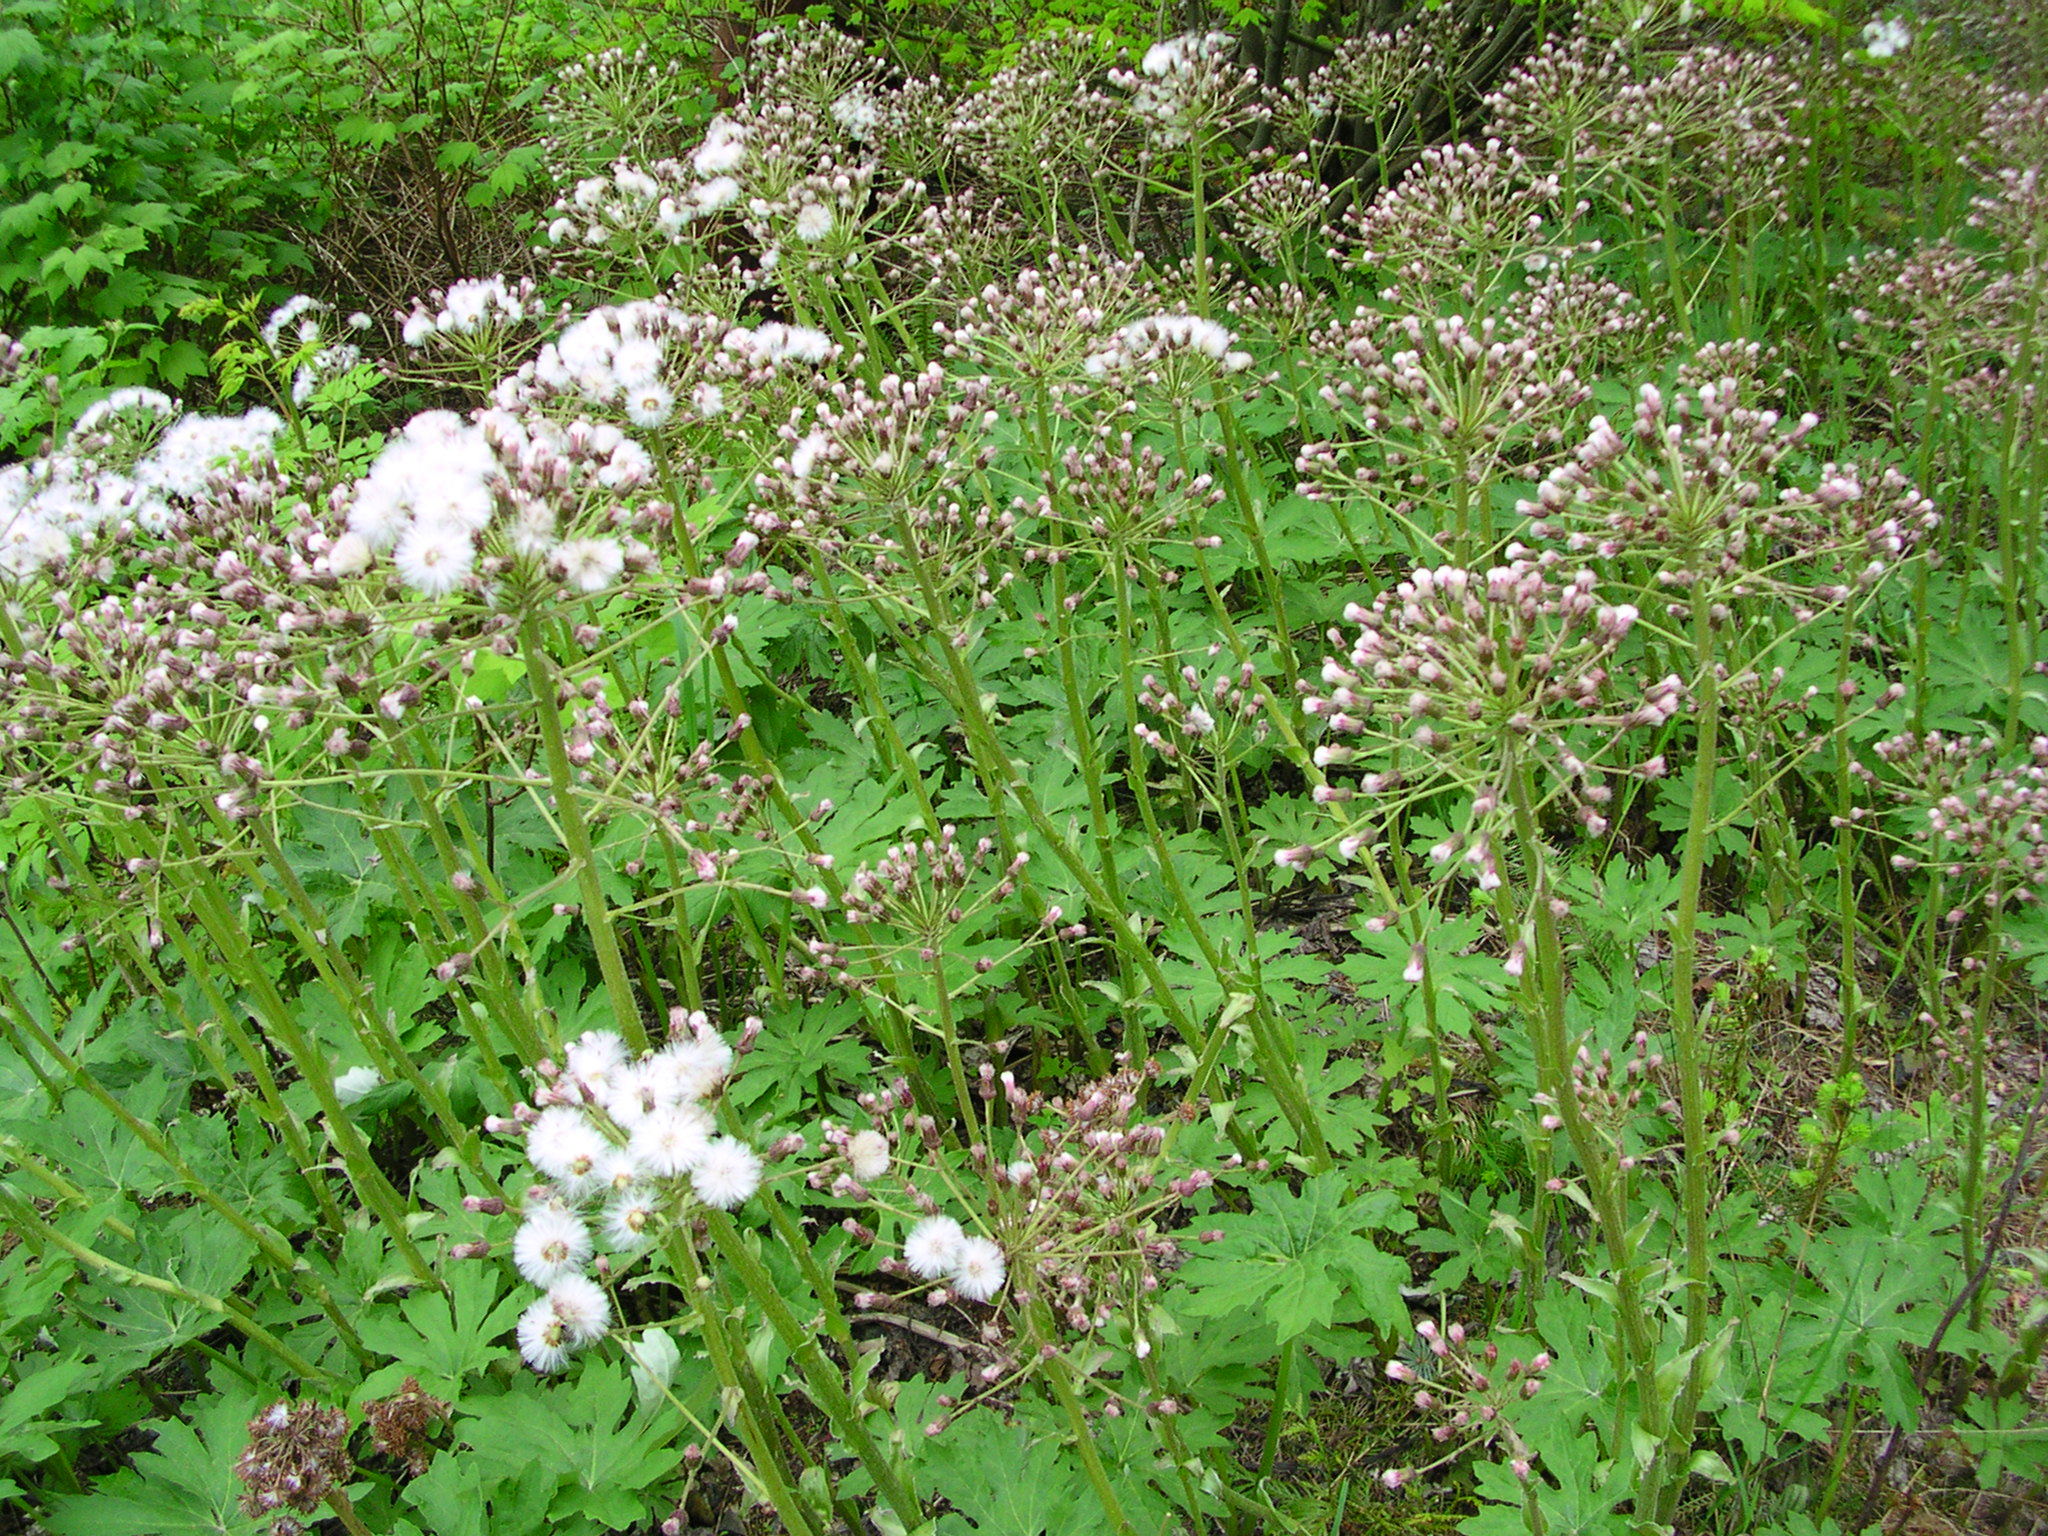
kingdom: Plantae
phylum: Tracheophyta
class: Magnoliopsida
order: Asterales
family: Asteraceae
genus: Petasites
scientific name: Petasites frigidus
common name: Arctic butterbur
